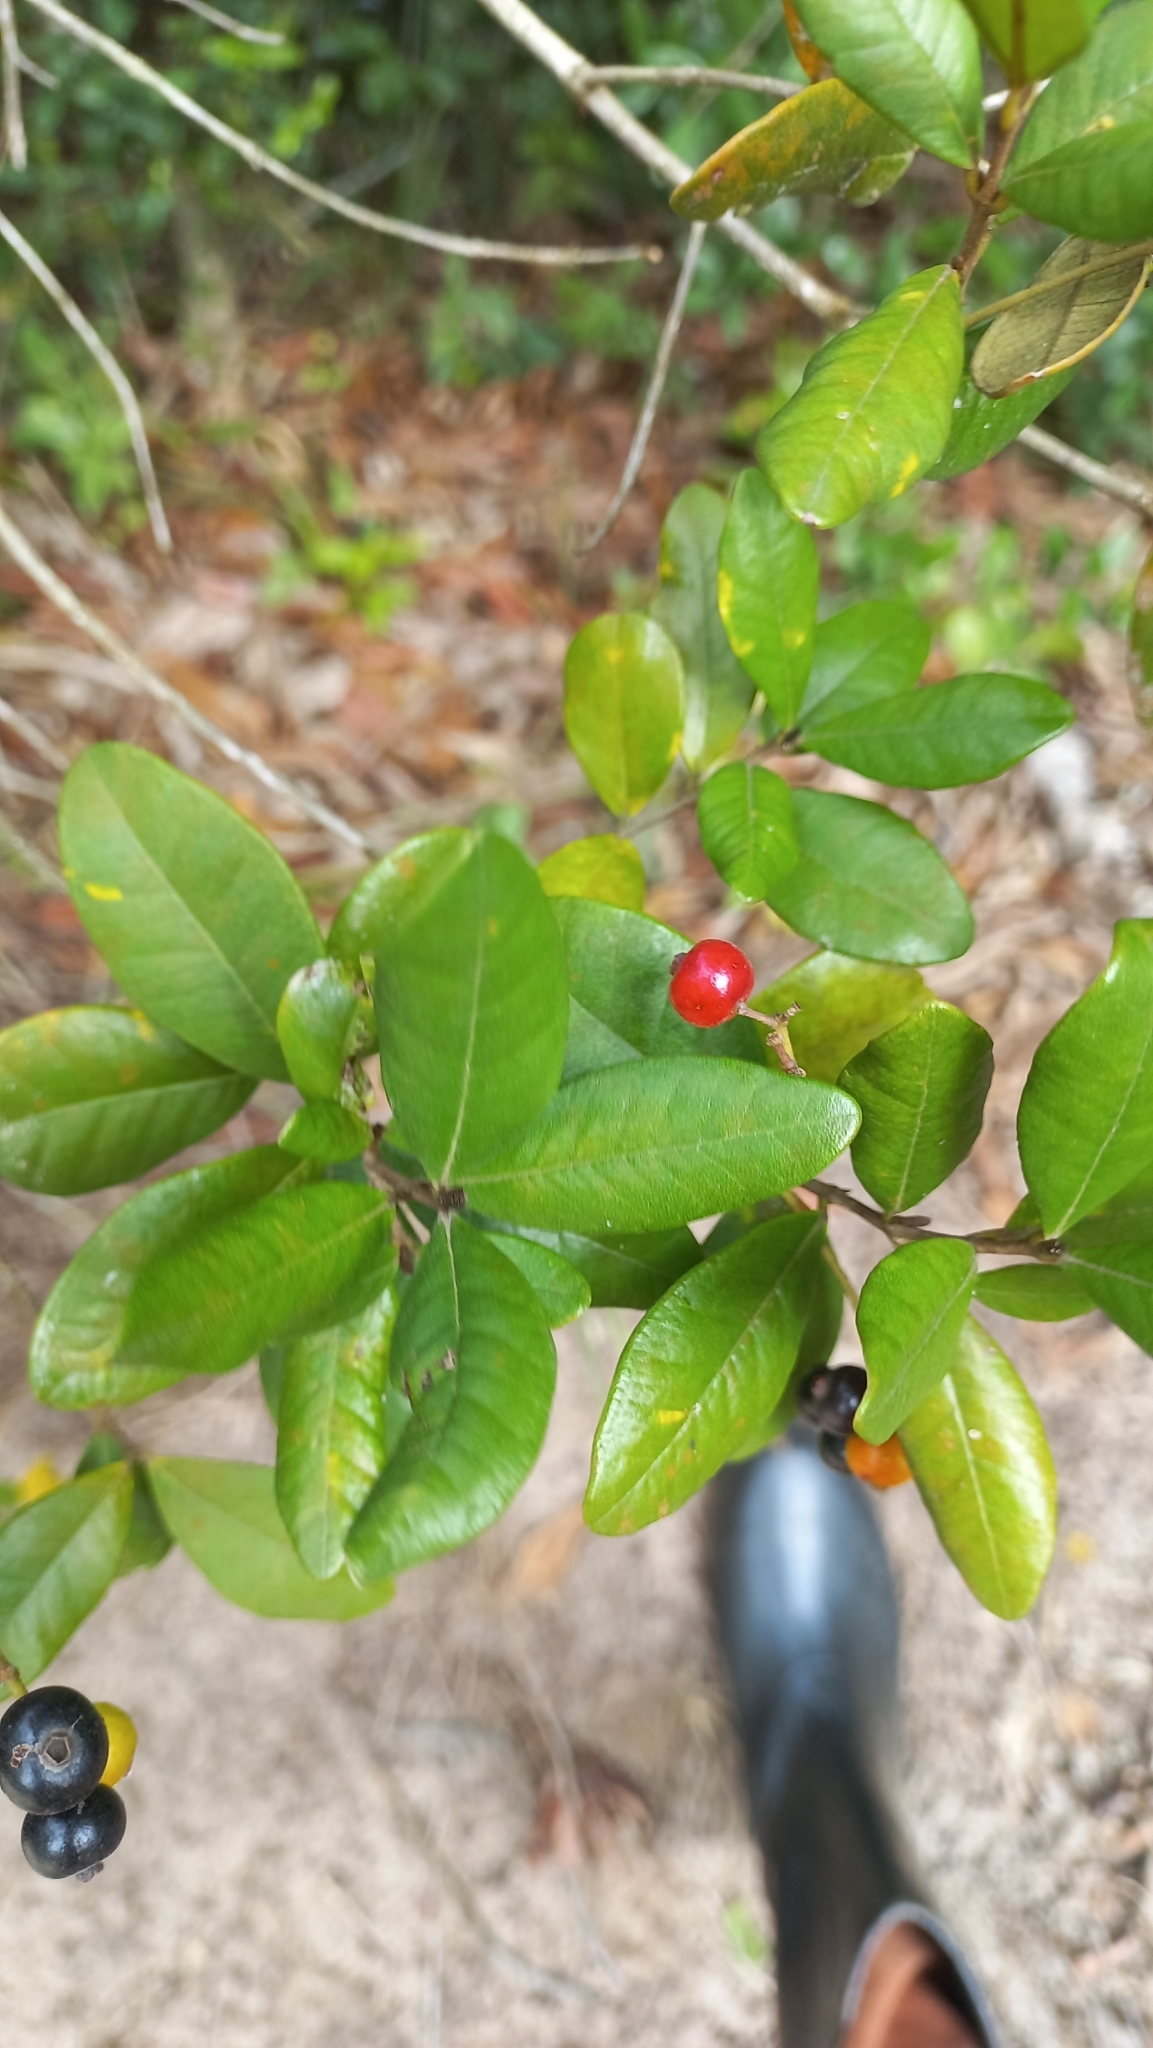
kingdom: Plantae
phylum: Tracheophyta
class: Magnoliopsida
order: Myrtales
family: Myrtaceae
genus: Myrcia
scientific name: Myrcia palustris
